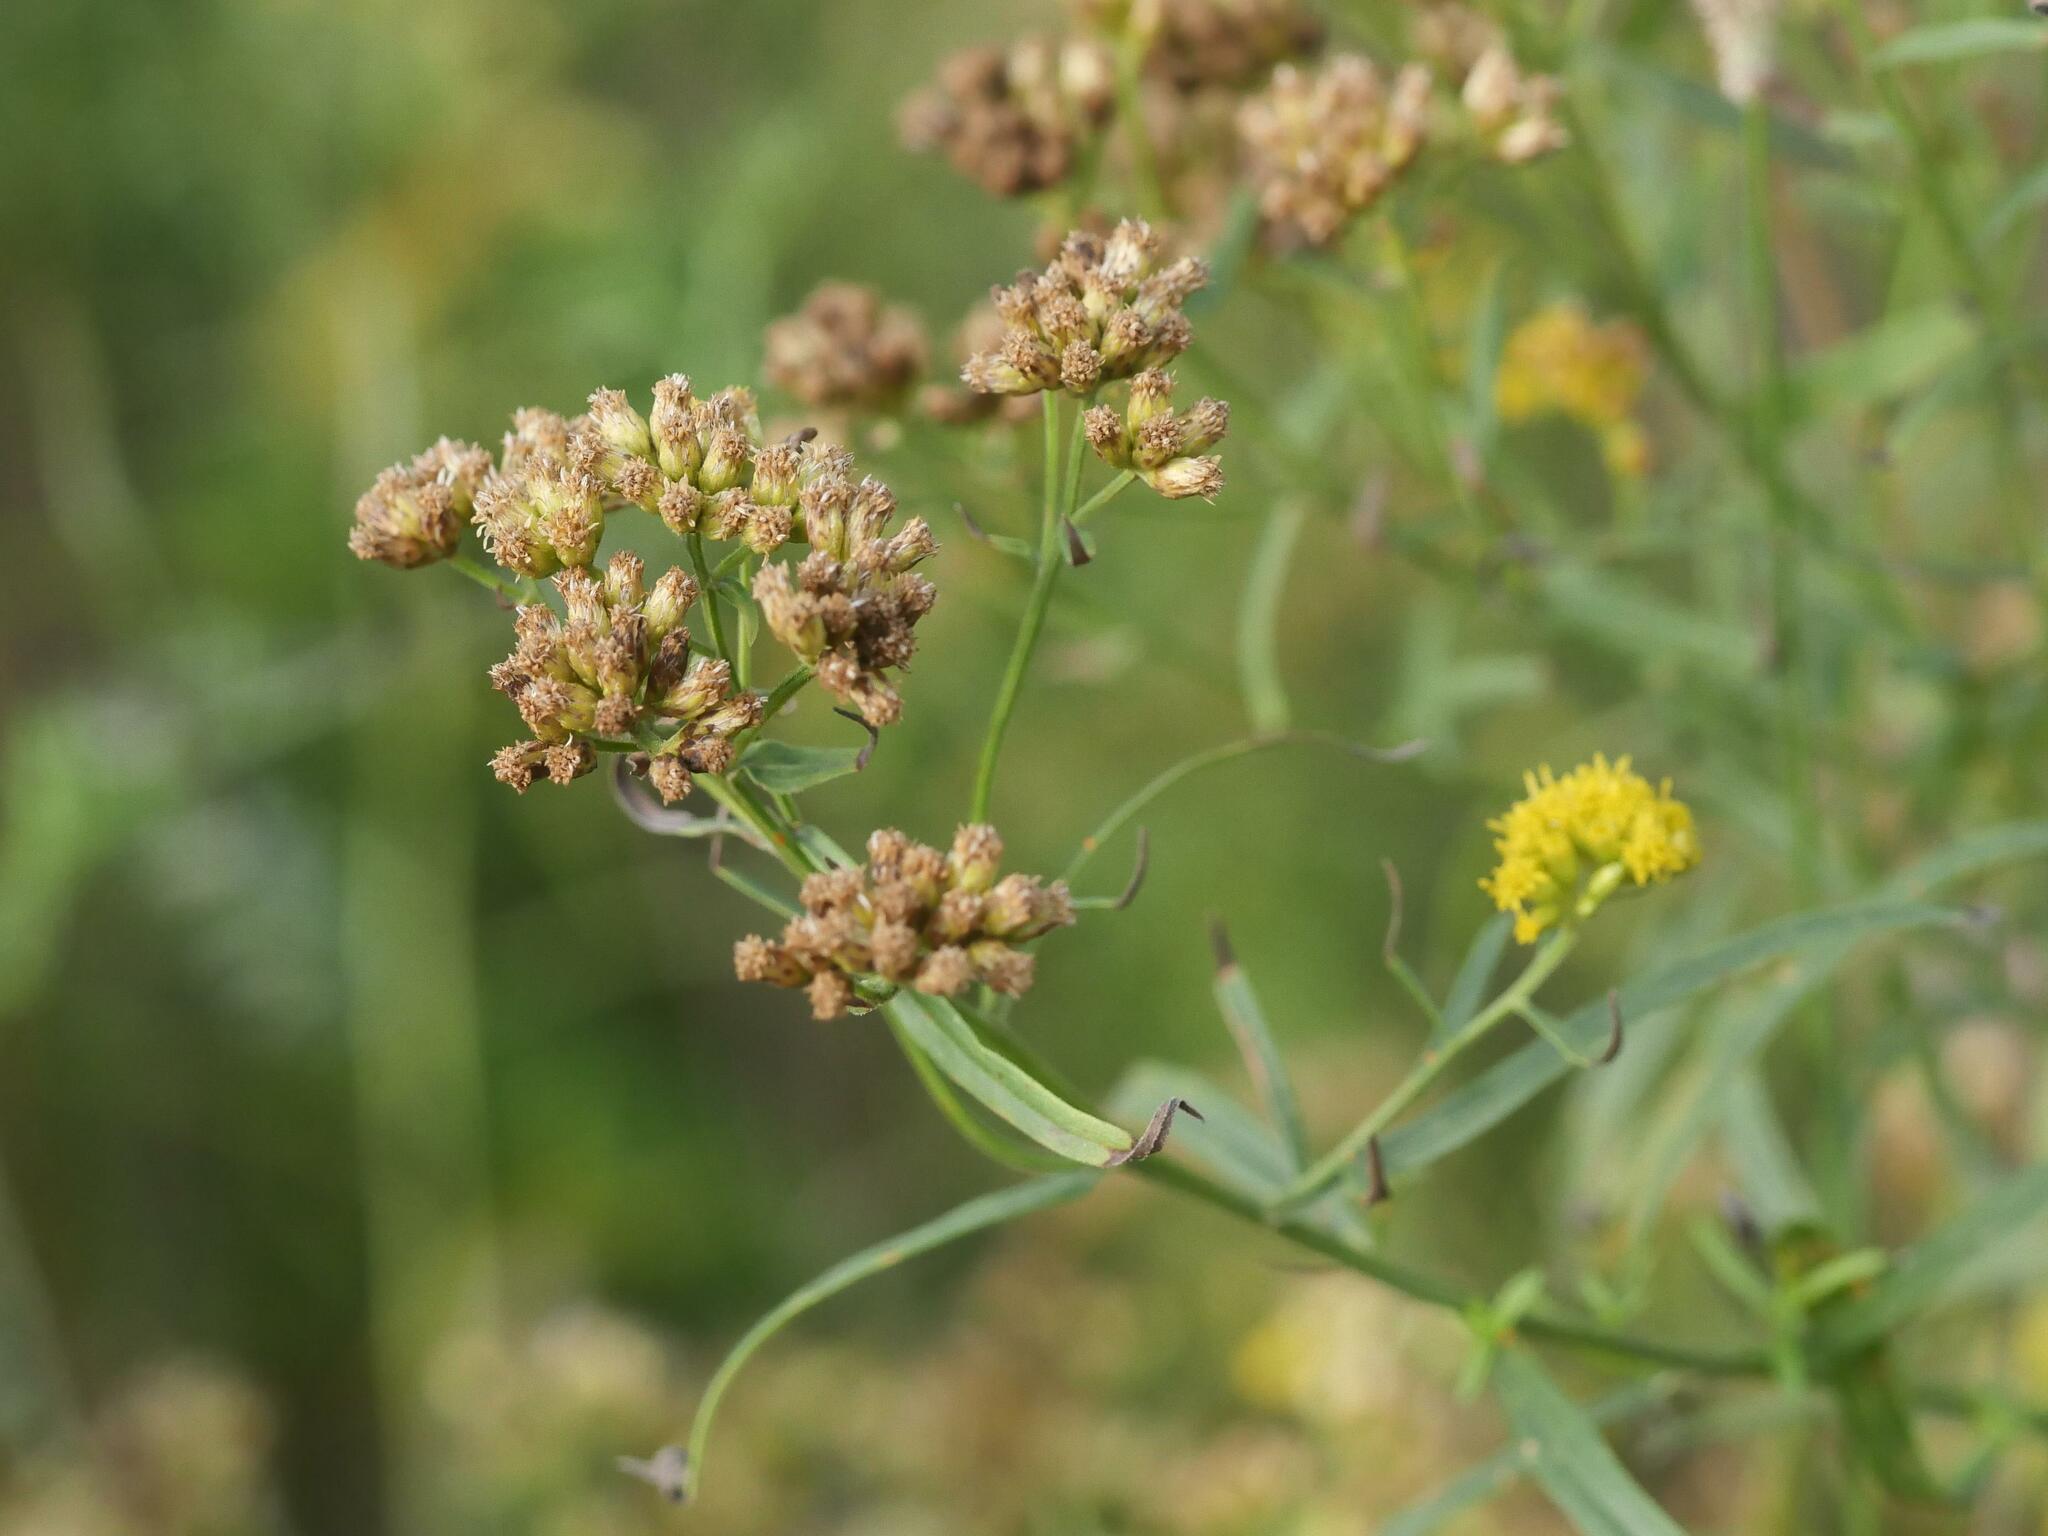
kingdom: Plantae
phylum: Tracheophyta
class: Magnoliopsida
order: Asterales
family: Asteraceae
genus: Euthamia
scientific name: Euthamia graminifolia
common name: Common goldentop
